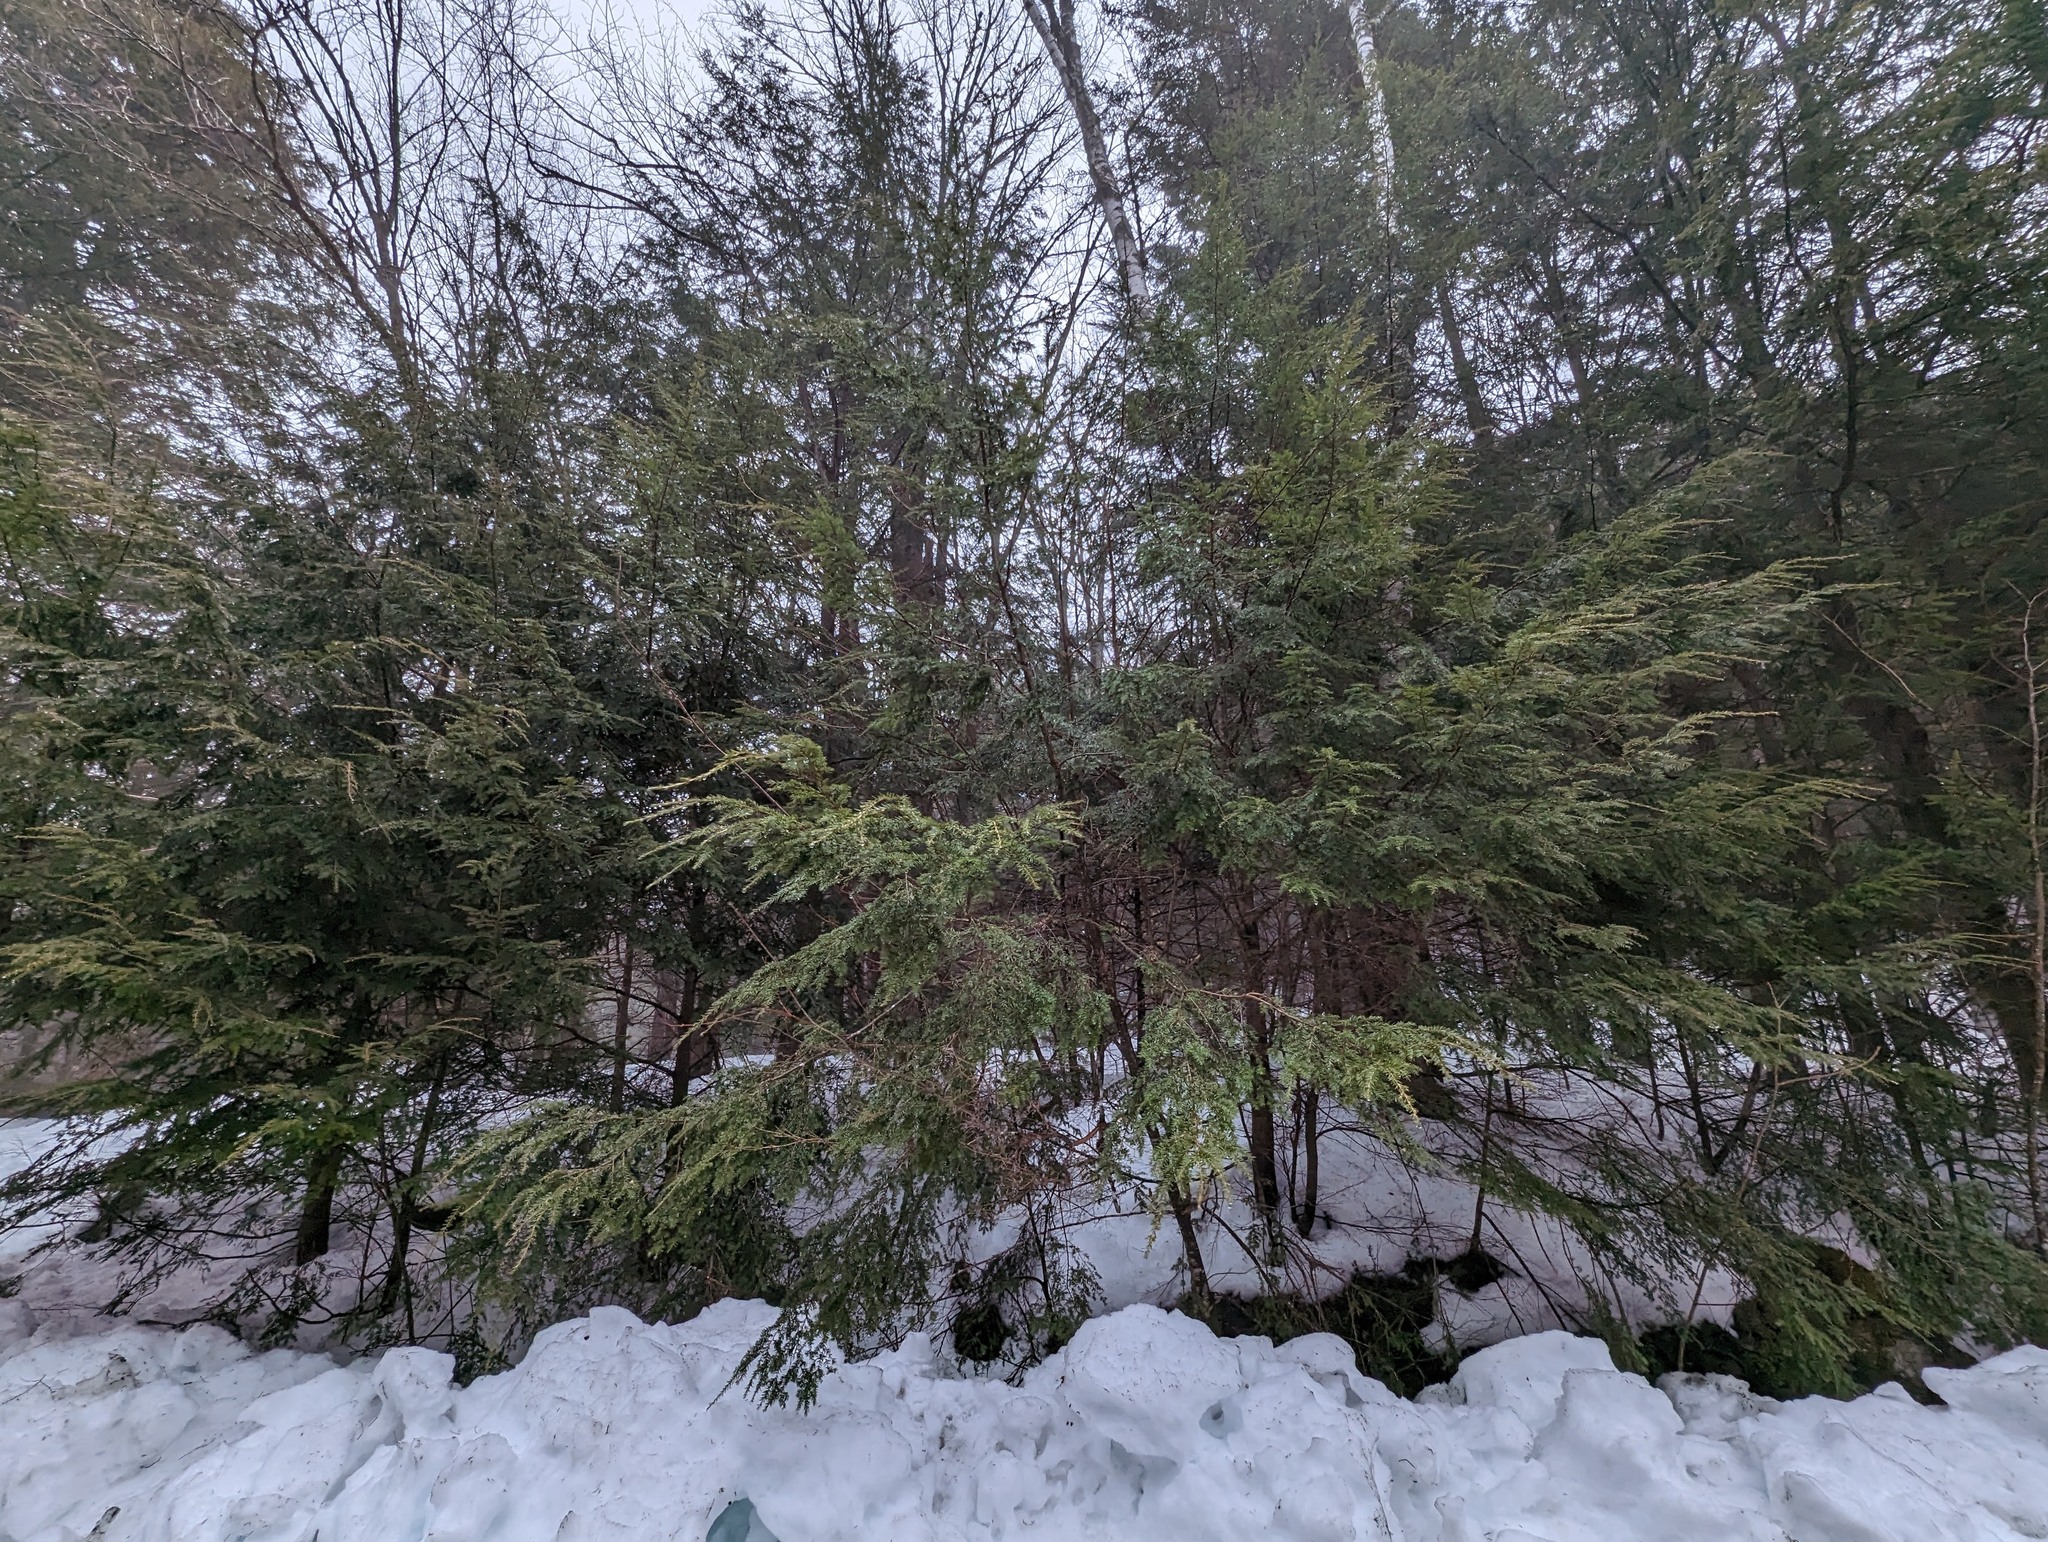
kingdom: Plantae
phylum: Tracheophyta
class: Pinopsida
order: Pinales
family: Pinaceae
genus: Tsuga
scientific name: Tsuga canadensis
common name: Eastern hemlock
